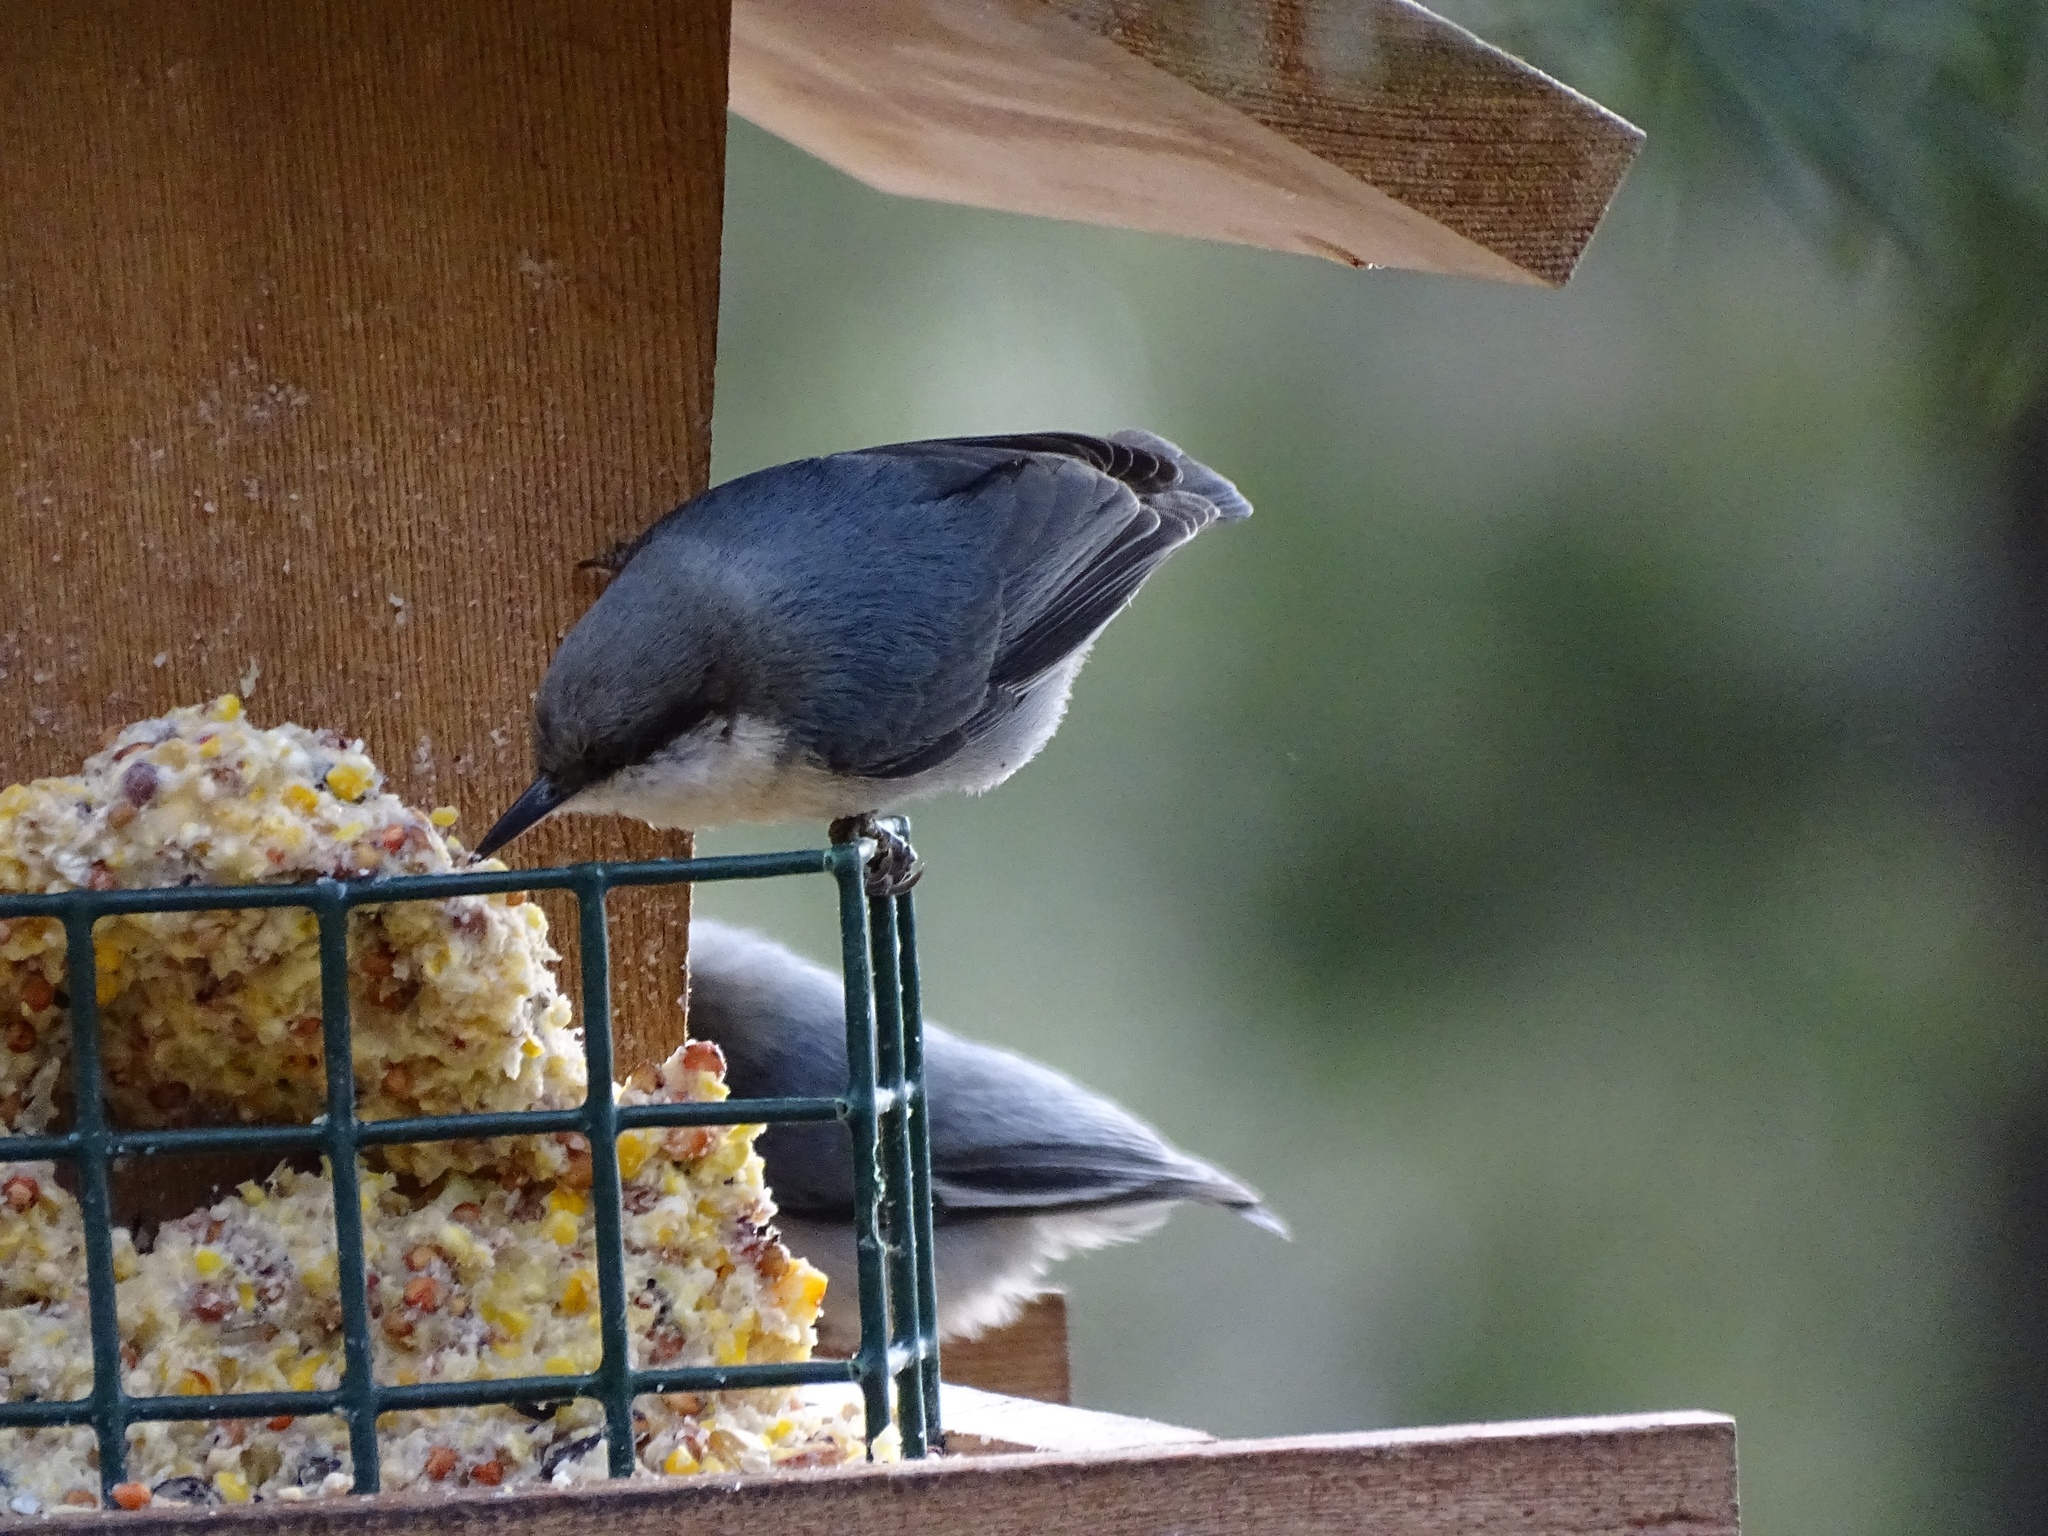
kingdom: Animalia
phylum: Chordata
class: Aves
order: Passeriformes
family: Sittidae
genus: Sitta
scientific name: Sitta pygmaea
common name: Pygmy nuthatch
